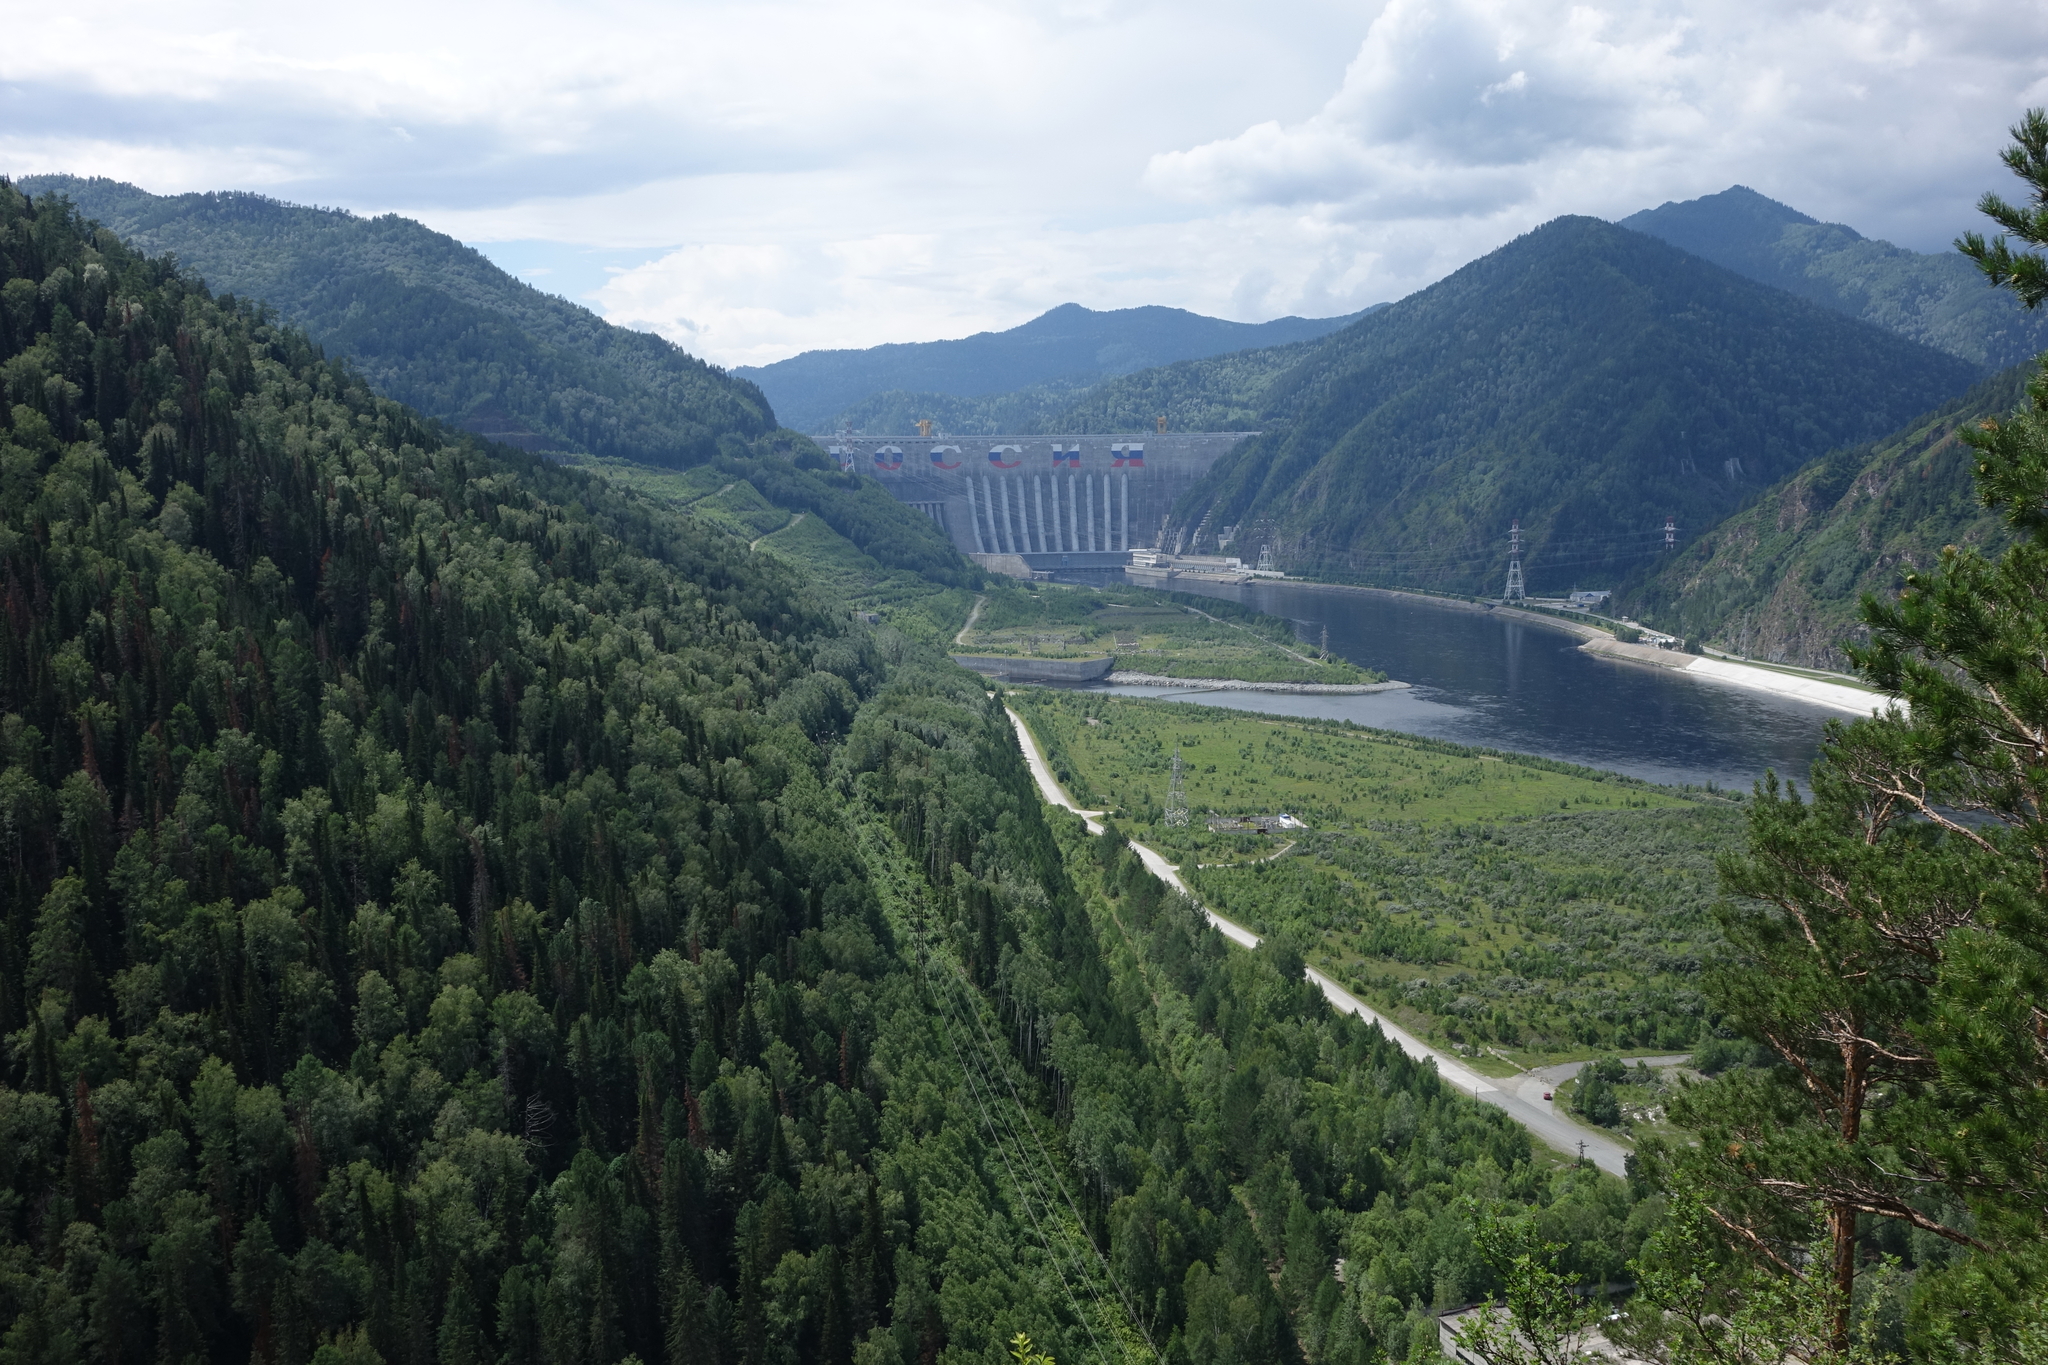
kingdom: Plantae
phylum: Tracheophyta
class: Pinopsida
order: Pinales
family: Pinaceae
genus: Picea
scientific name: Picea obovata
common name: Siberian spruce
